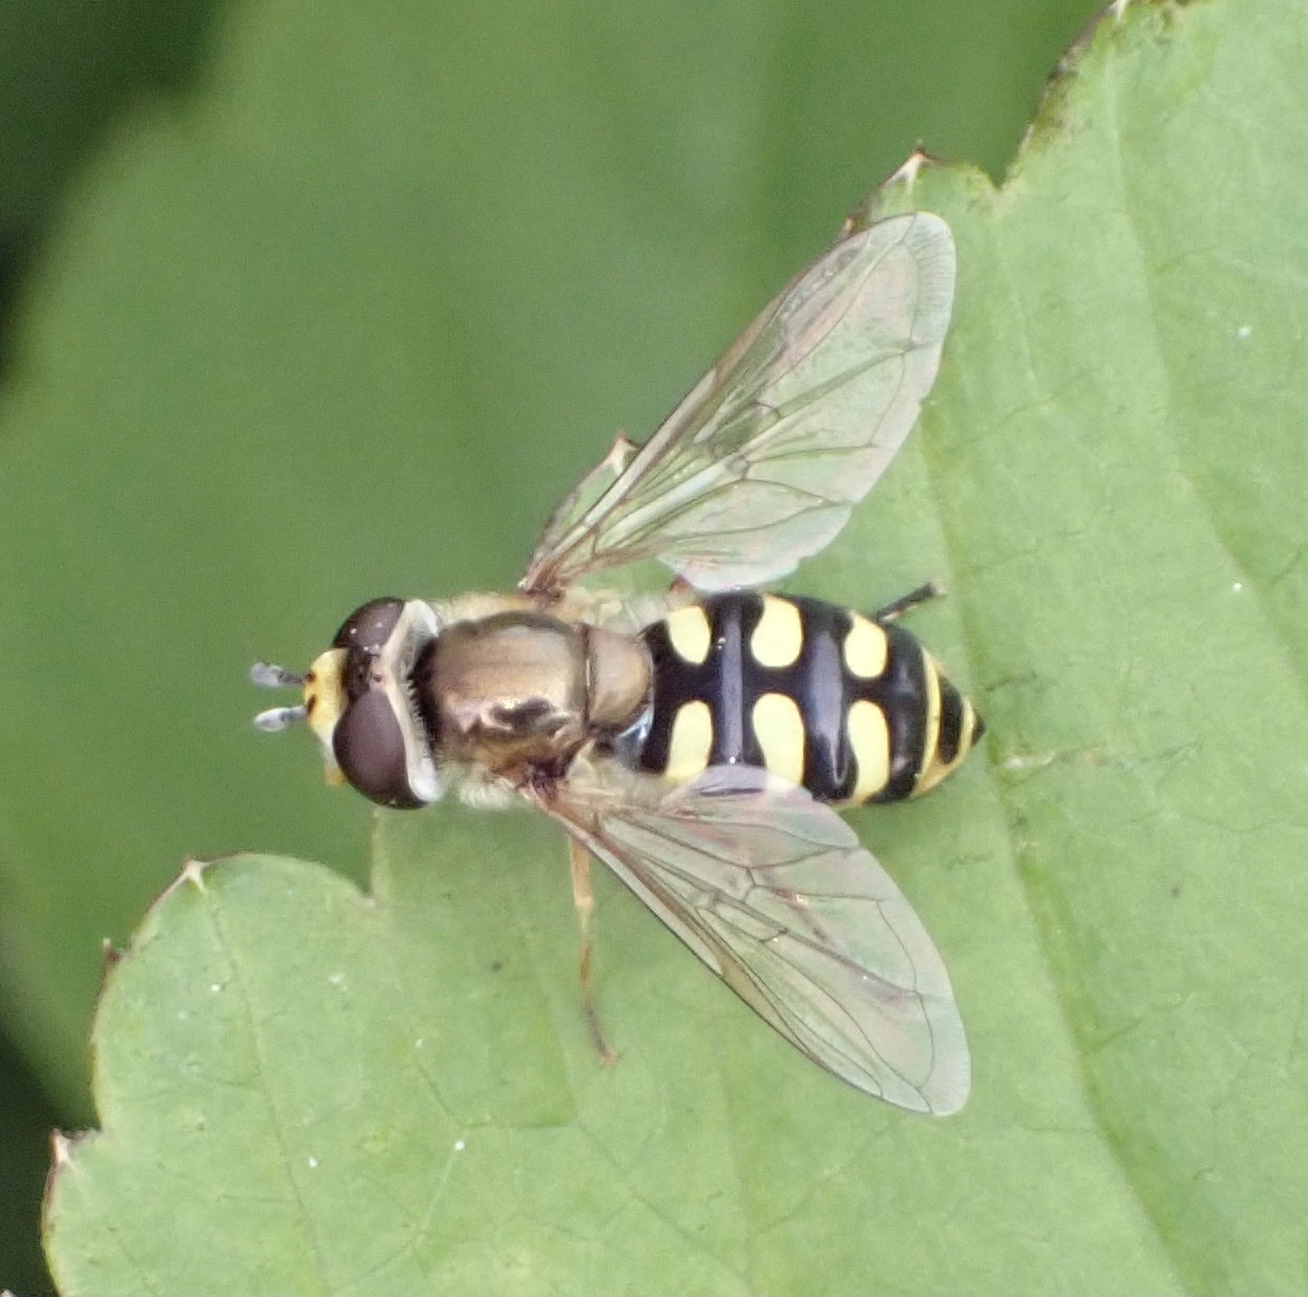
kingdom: Animalia
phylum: Arthropoda
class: Insecta
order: Diptera
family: Syrphidae
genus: Eupeodes
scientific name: Eupeodes corollae
